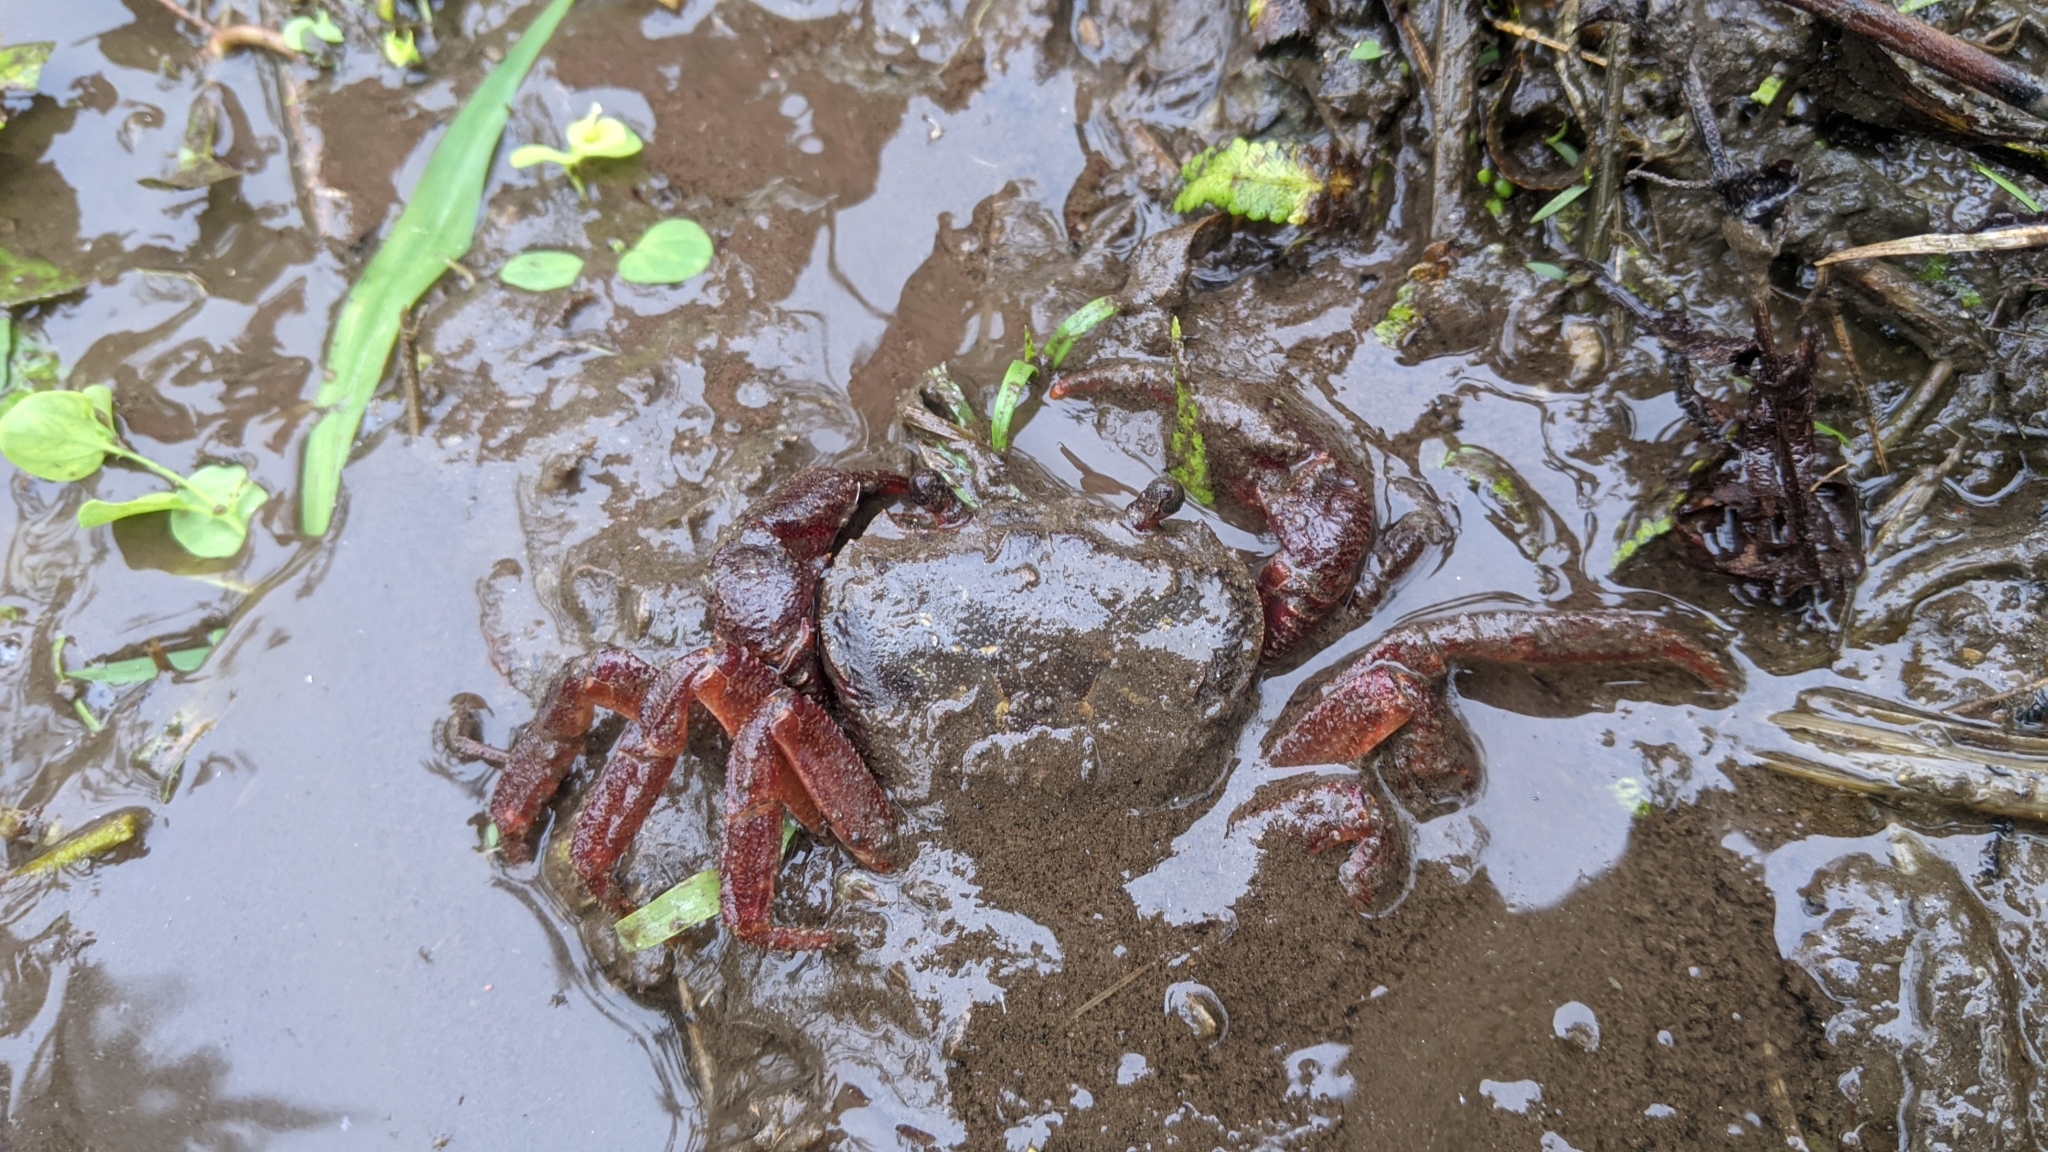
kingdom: Animalia
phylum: Arthropoda
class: Malacostraca
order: Decapoda
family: Potamidae
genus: Candidiopotamon
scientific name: Candidiopotamon rathbuni
